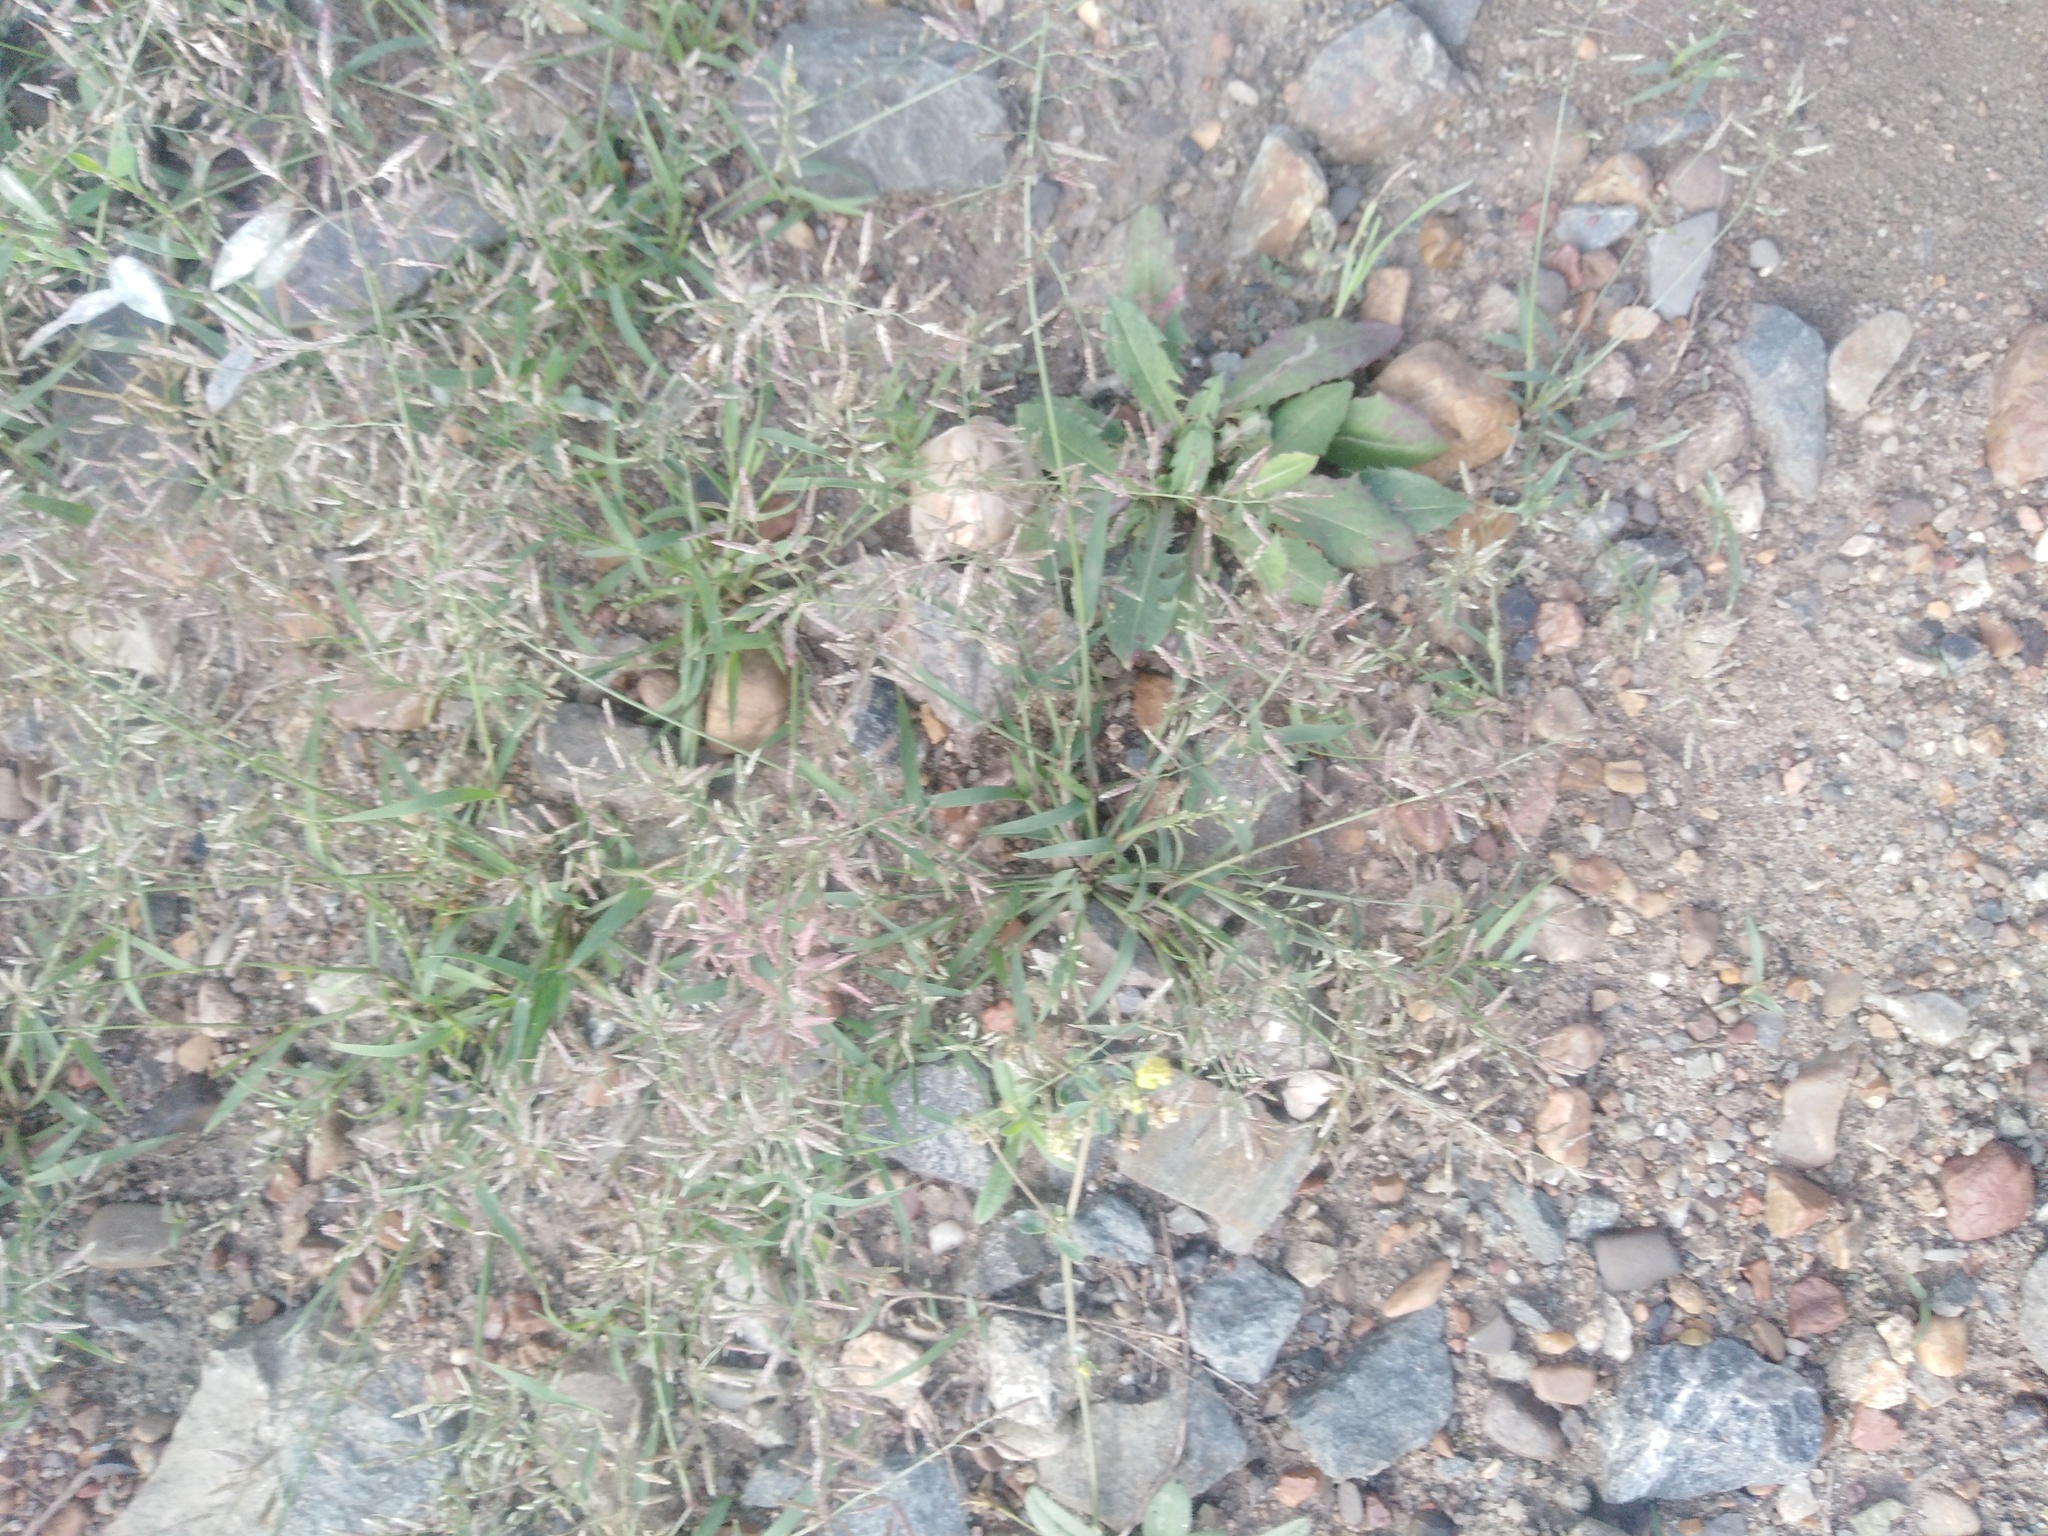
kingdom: Plantae
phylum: Tracheophyta
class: Liliopsida
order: Poales
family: Poaceae
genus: Eragrostis
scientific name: Eragrostis minor
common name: Small love-grass
